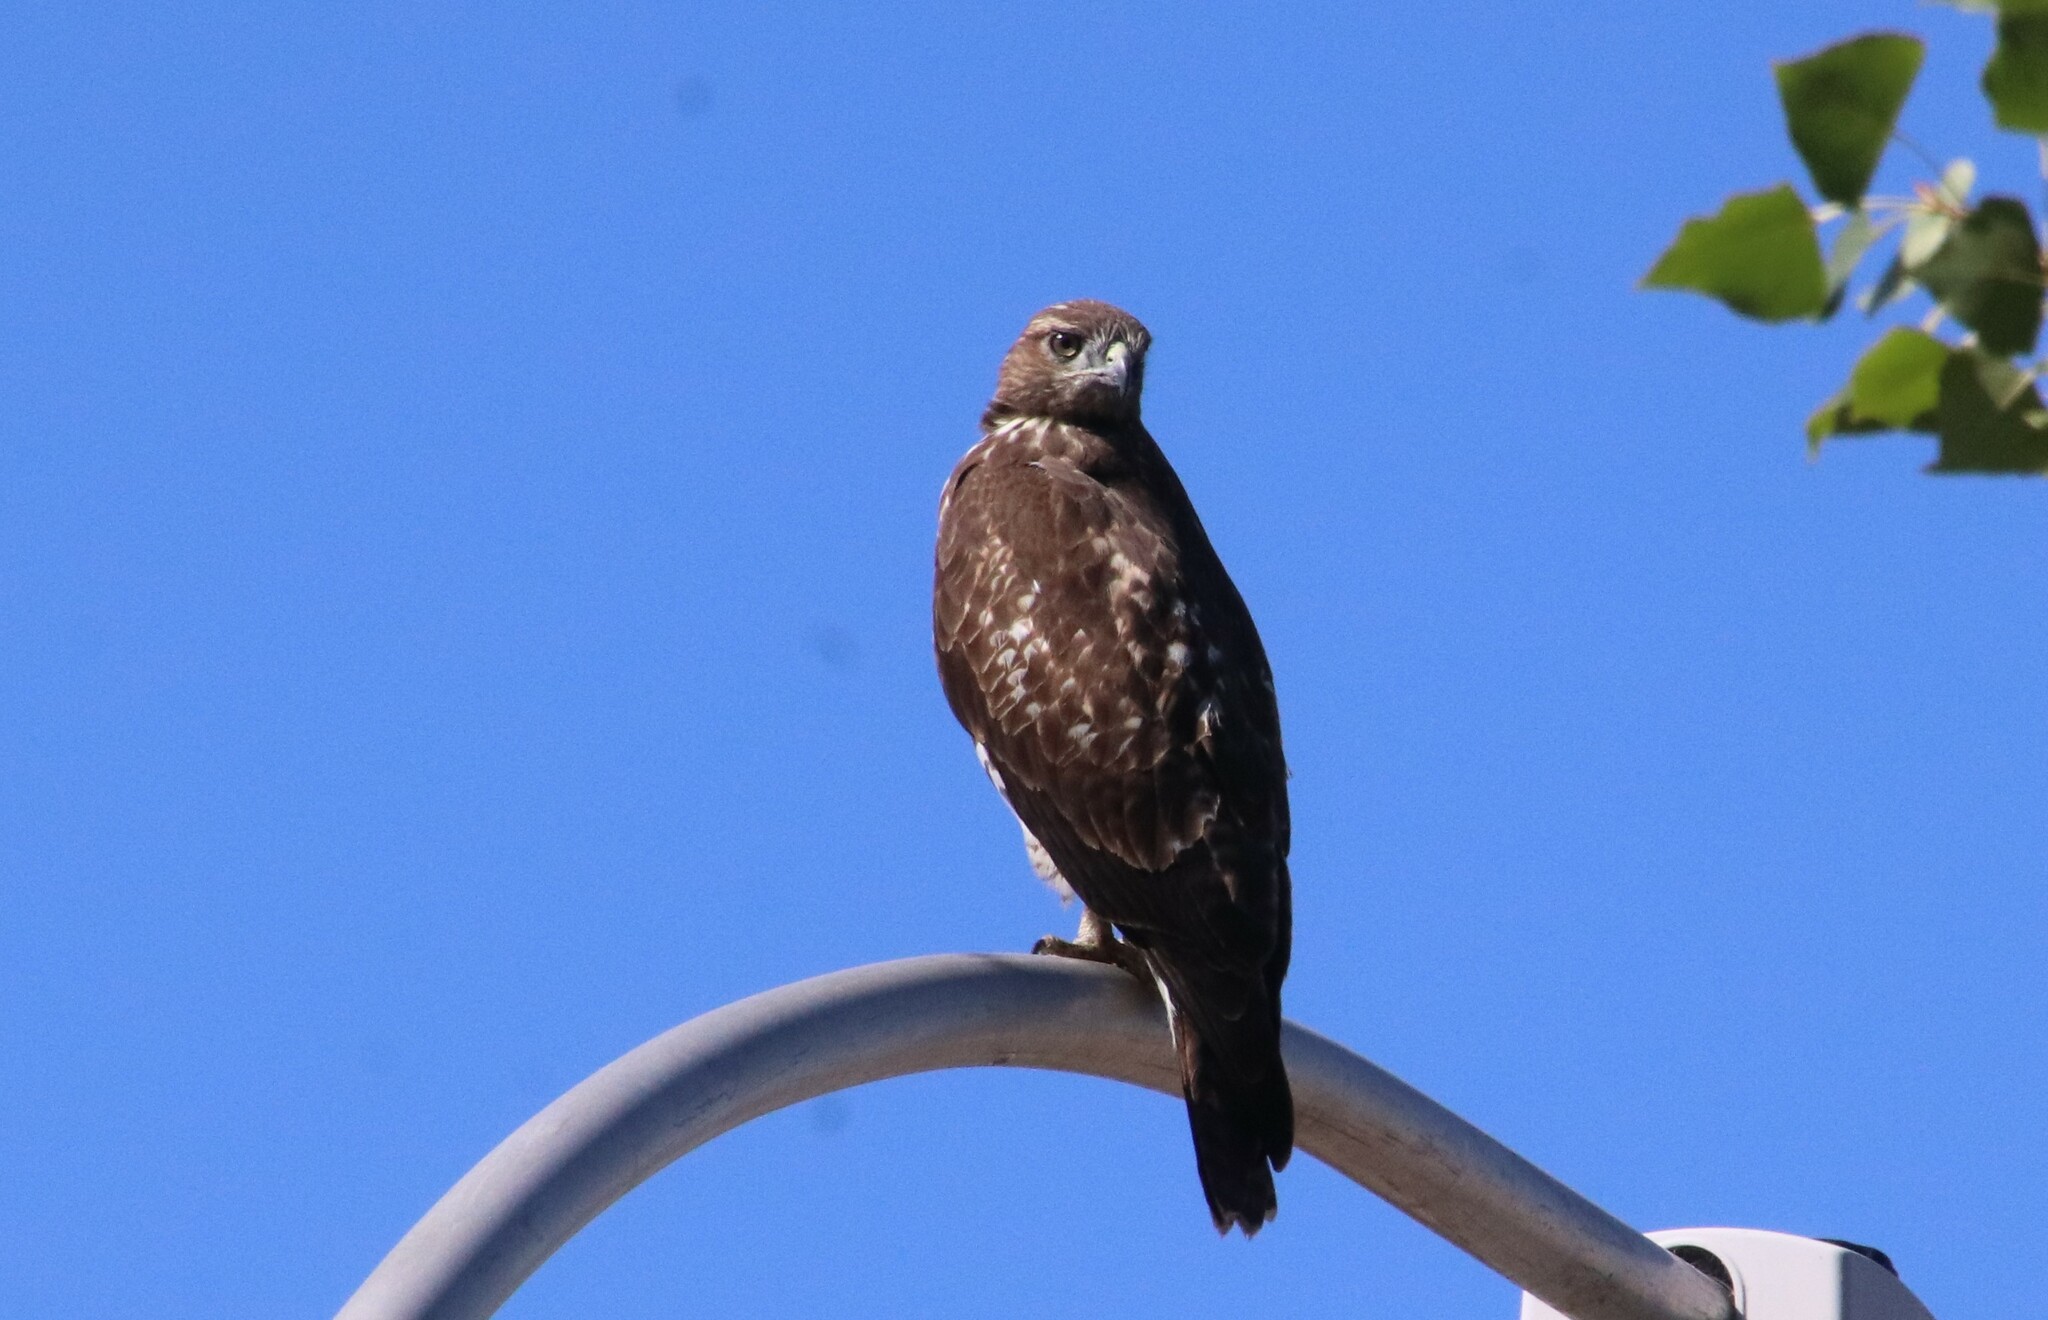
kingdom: Animalia
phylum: Chordata
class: Aves
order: Accipitriformes
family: Accipitridae
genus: Buteo
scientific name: Buteo jamaicensis
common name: Red-tailed hawk
